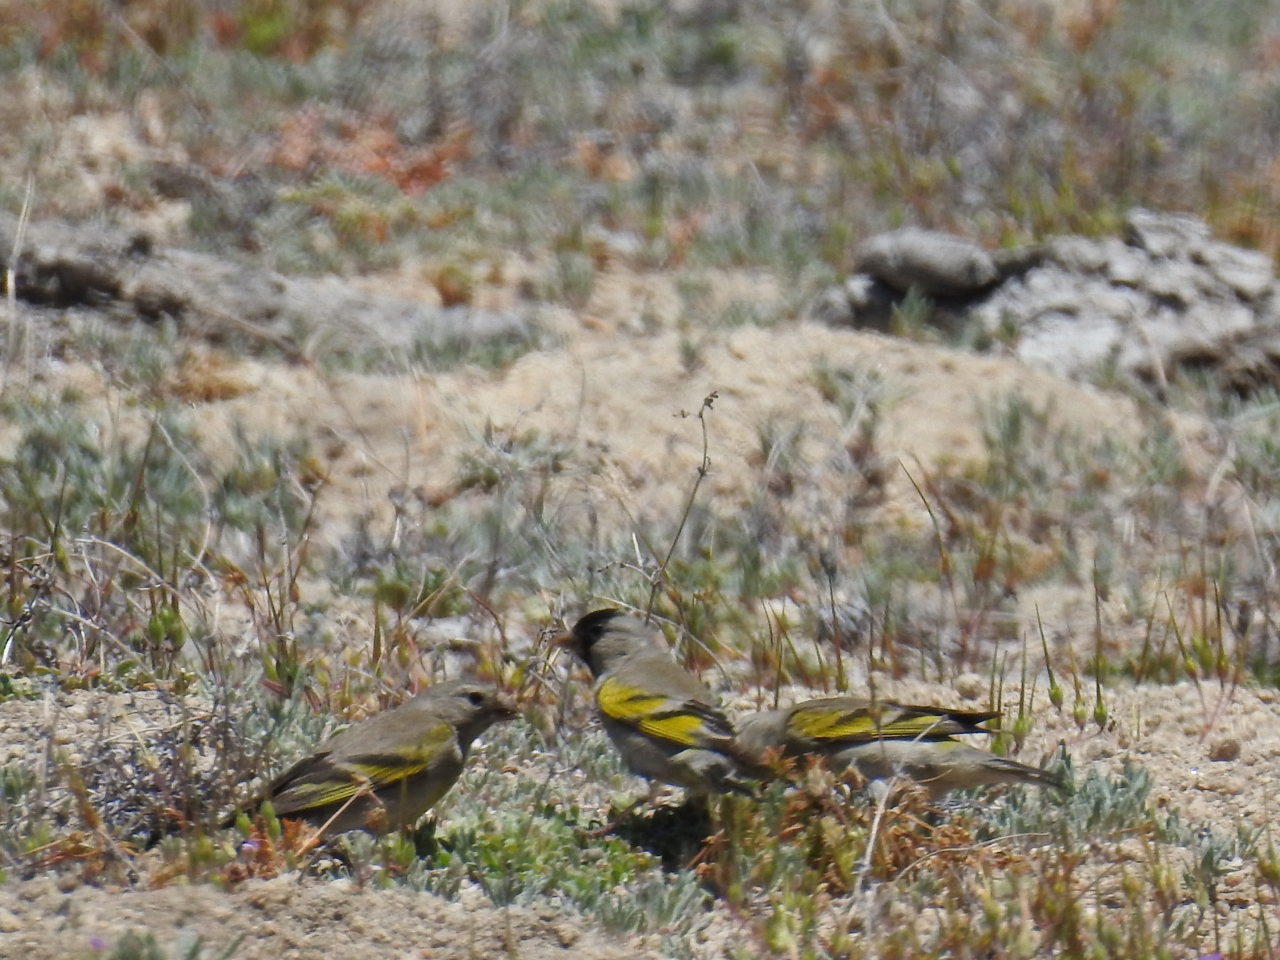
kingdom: Animalia
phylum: Chordata
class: Aves
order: Passeriformes
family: Fringillidae
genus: Spinus
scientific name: Spinus lawrencei
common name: Lawrence's goldfinch
